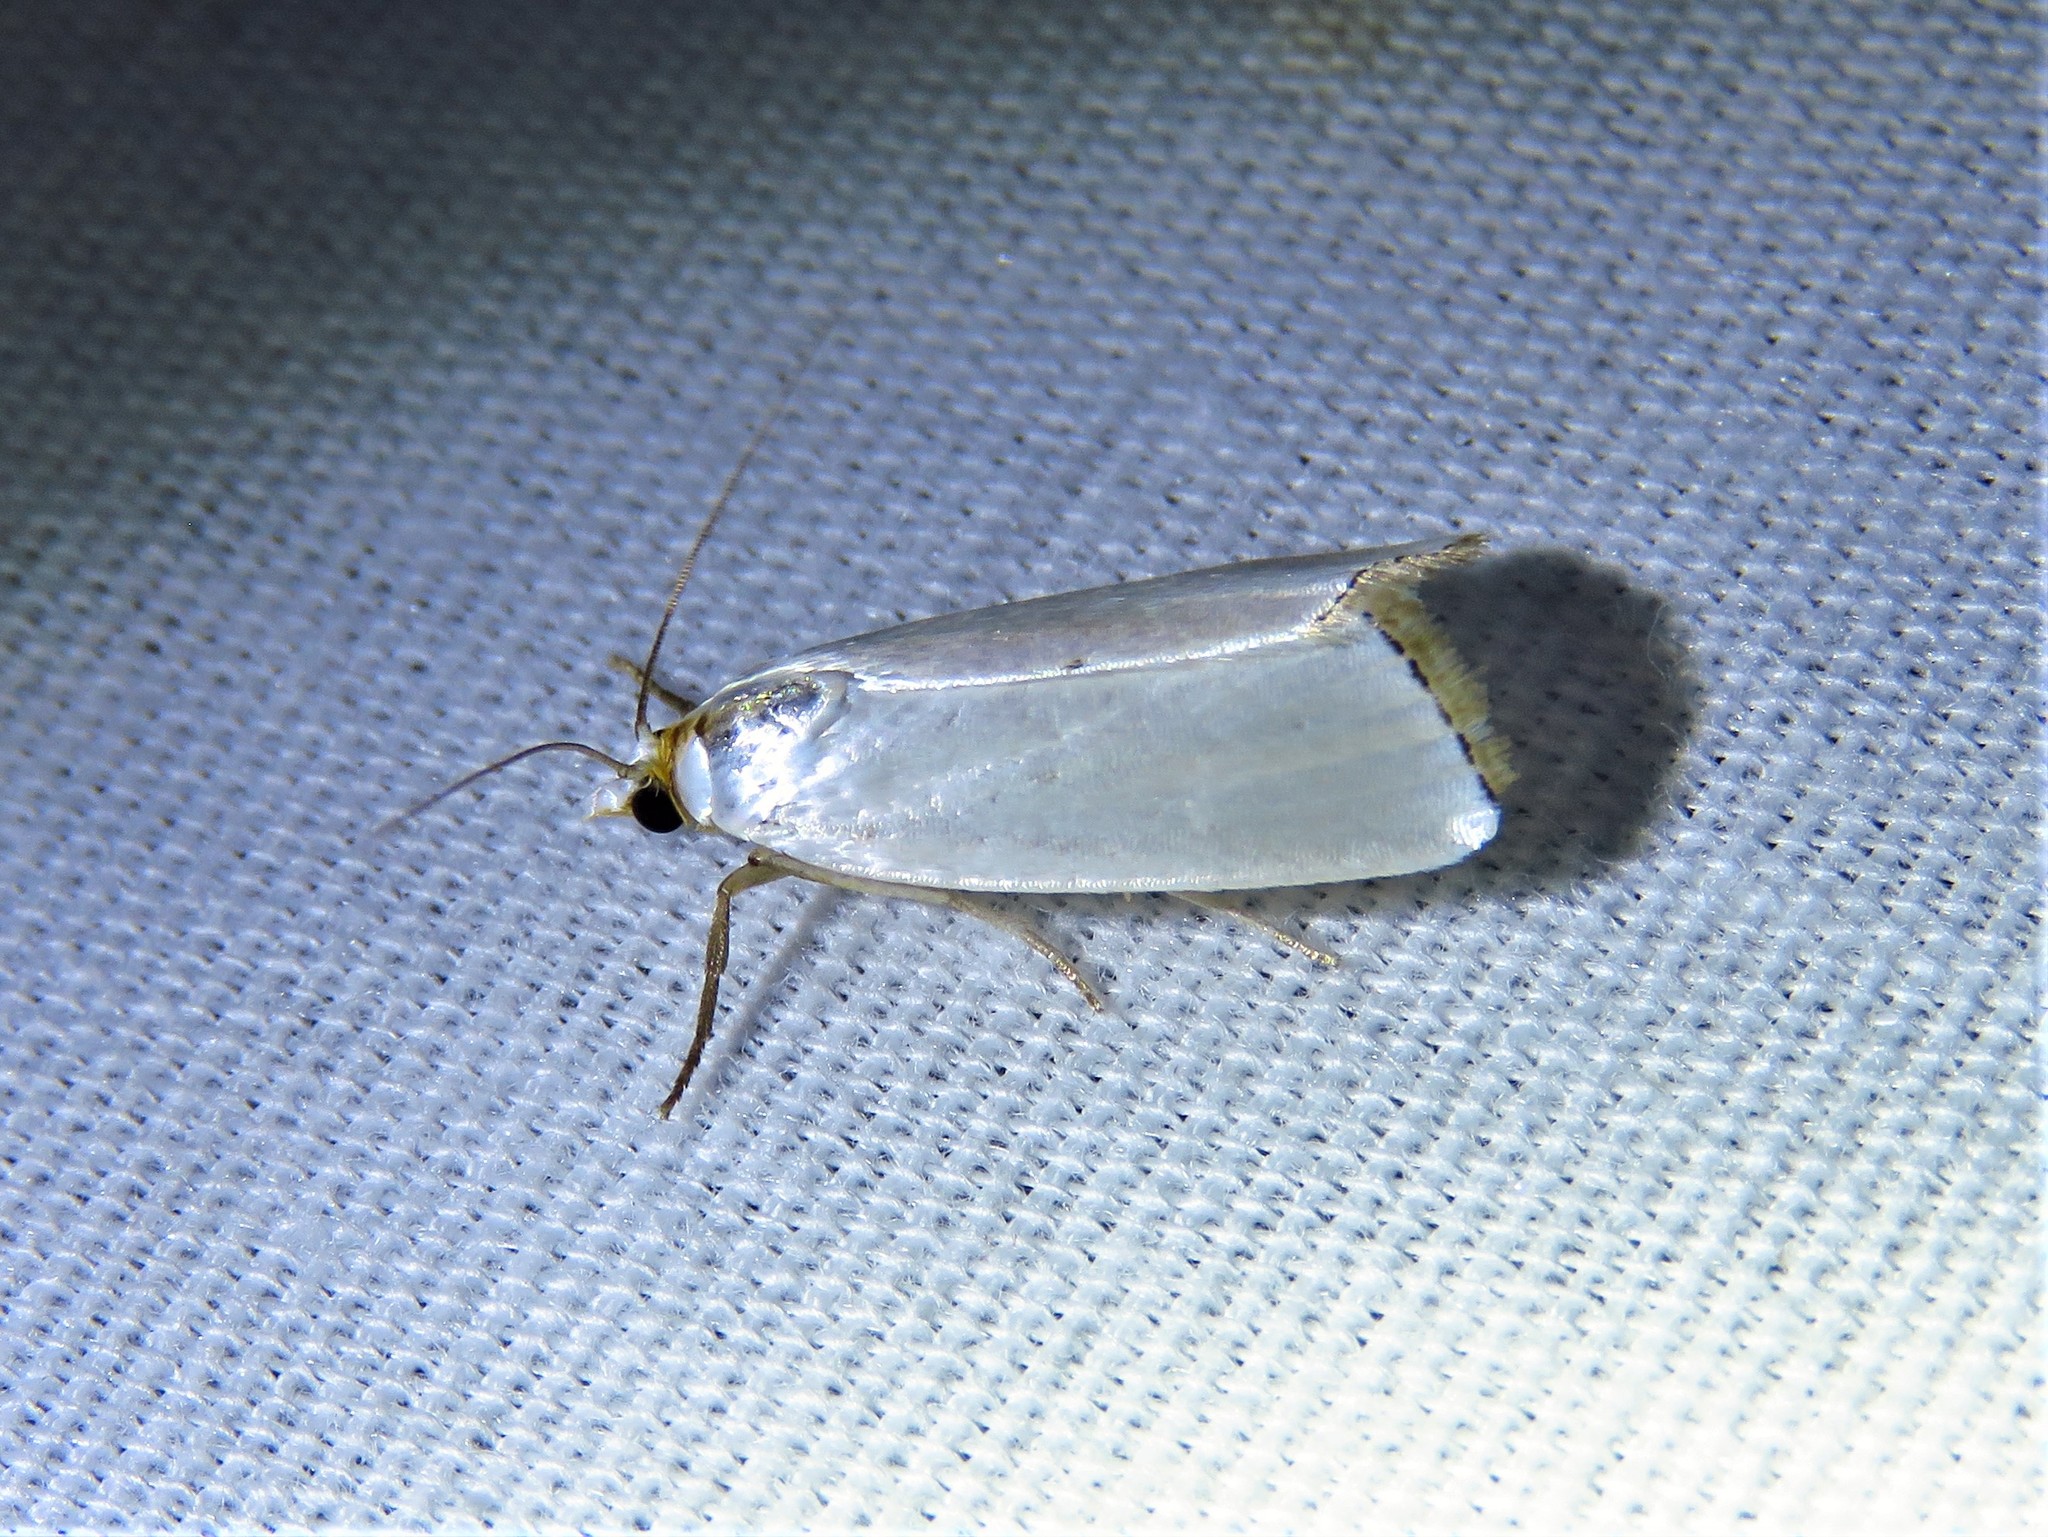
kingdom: Animalia
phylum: Arthropoda
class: Insecta
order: Lepidoptera
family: Crambidae
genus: Argyria
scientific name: Argyria nivalis
